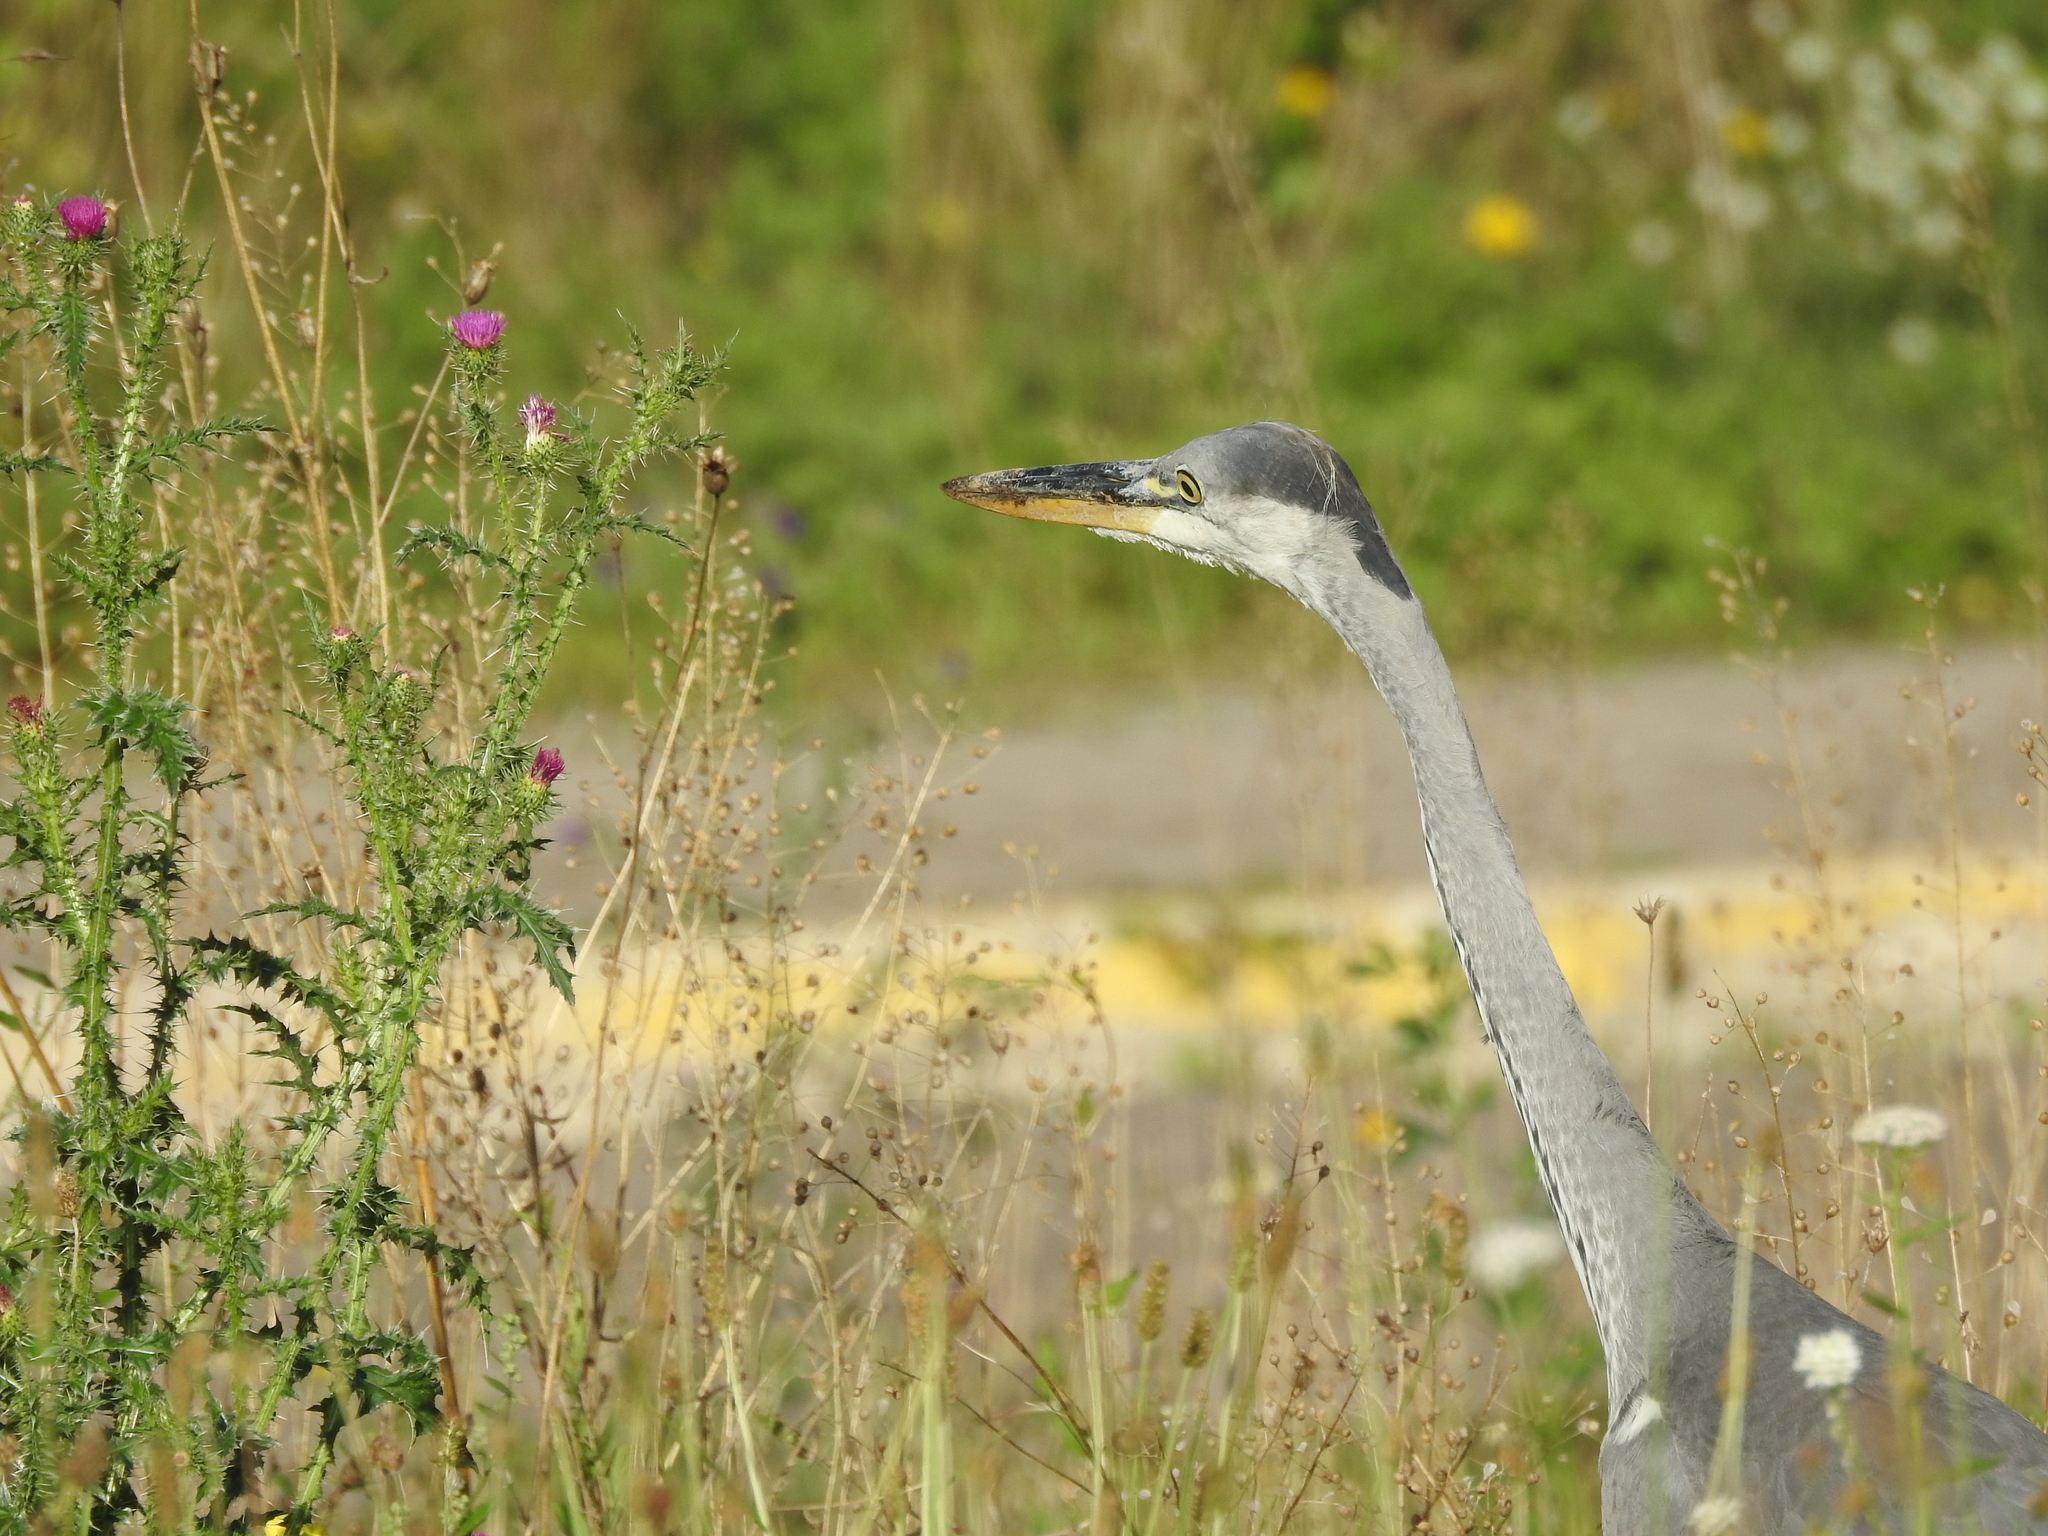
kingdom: Animalia
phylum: Chordata
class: Aves
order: Pelecaniformes
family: Ardeidae
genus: Ardea
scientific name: Ardea cinerea
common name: Grey heron
